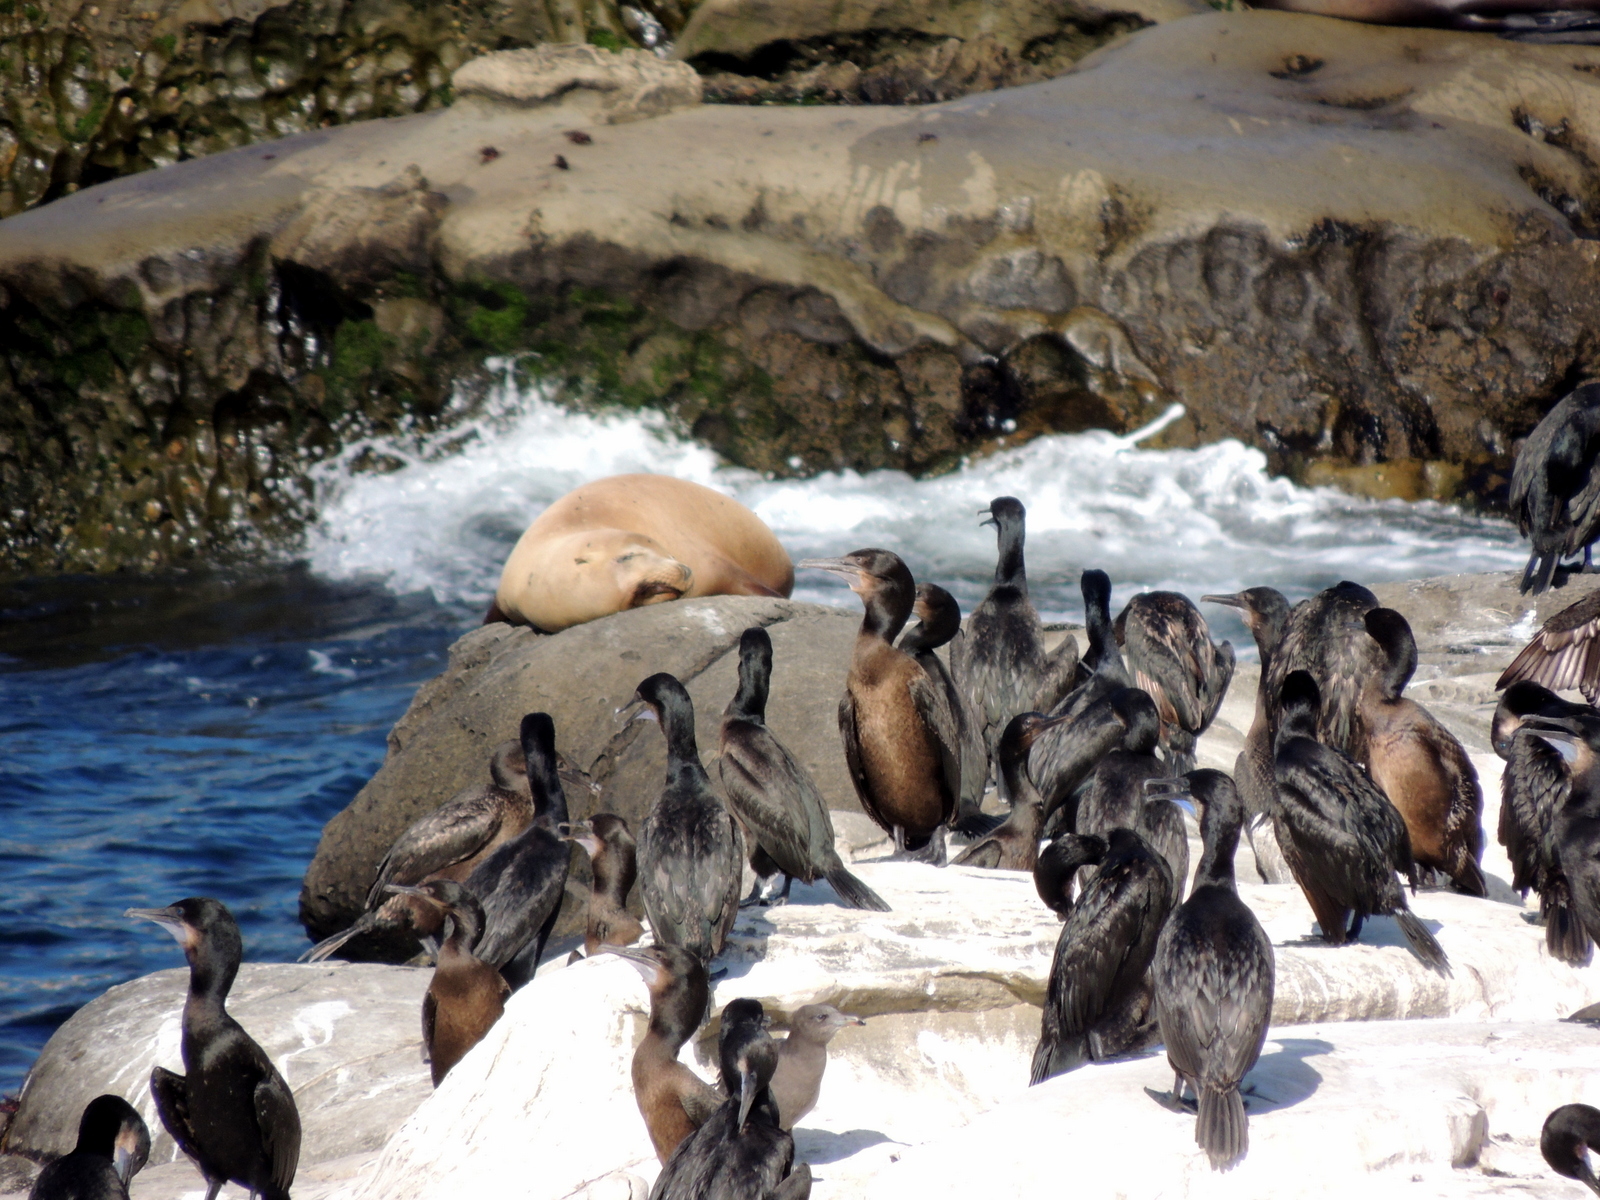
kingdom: Animalia
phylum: Chordata
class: Aves
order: Suliformes
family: Phalacrocoracidae
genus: Urile
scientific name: Urile penicillatus
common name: Brandt's cormorant
